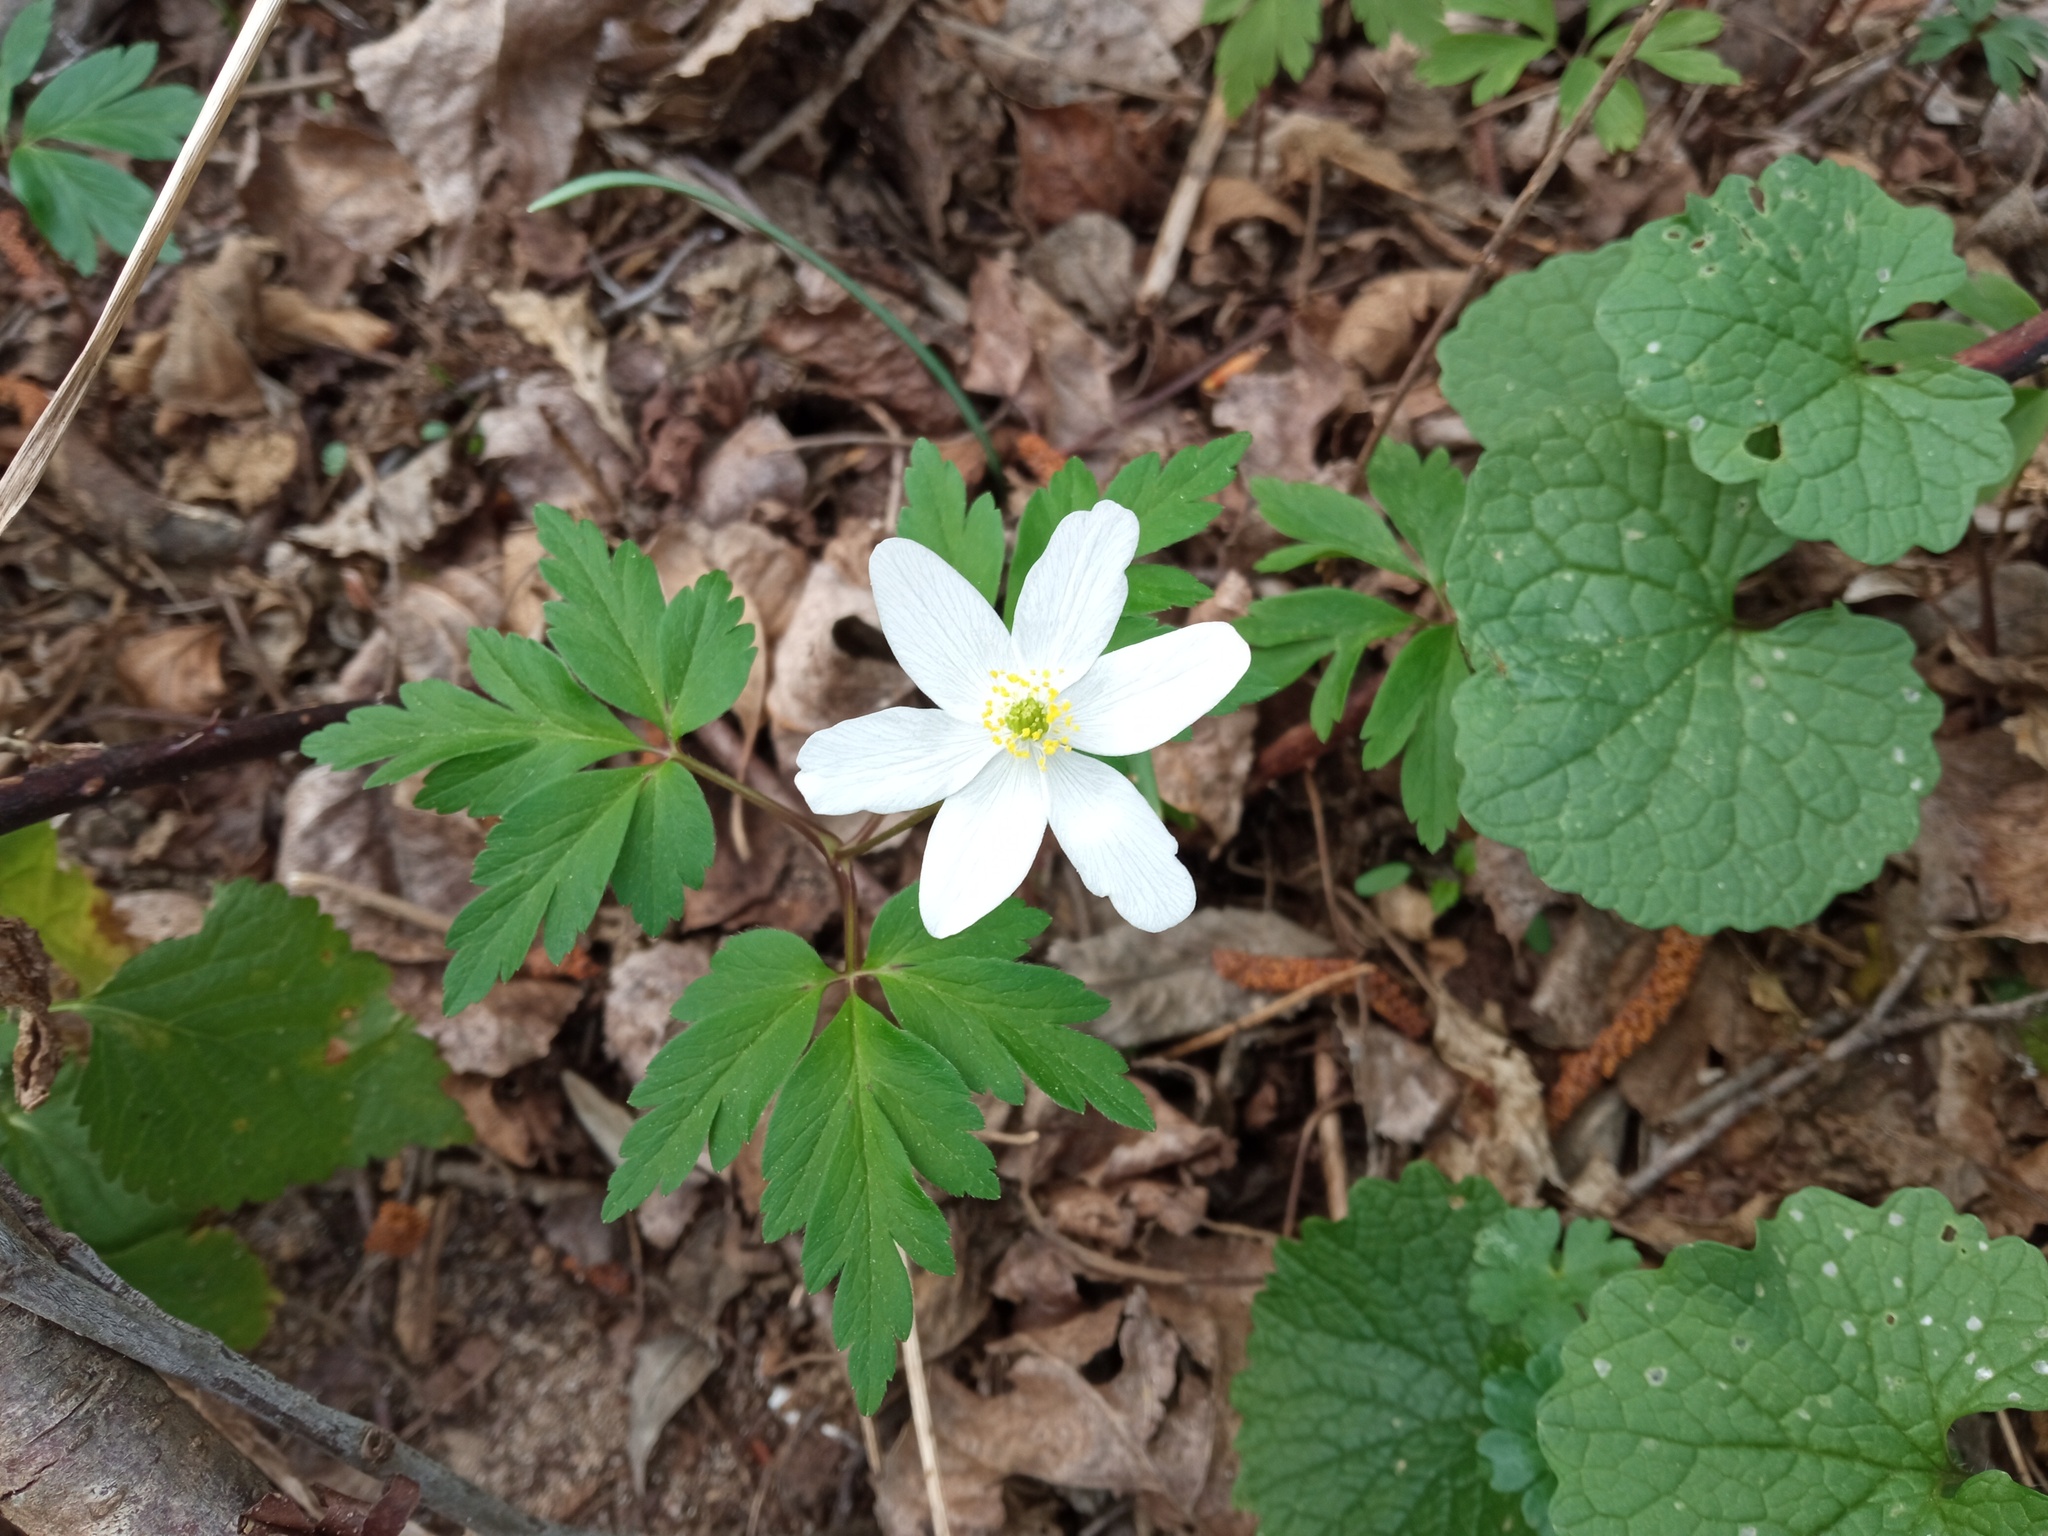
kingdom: Plantae
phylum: Tracheophyta
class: Magnoliopsida
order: Ranunculales
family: Ranunculaceae
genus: Anemone
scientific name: Anemone nemorosa
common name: Wood anemone
